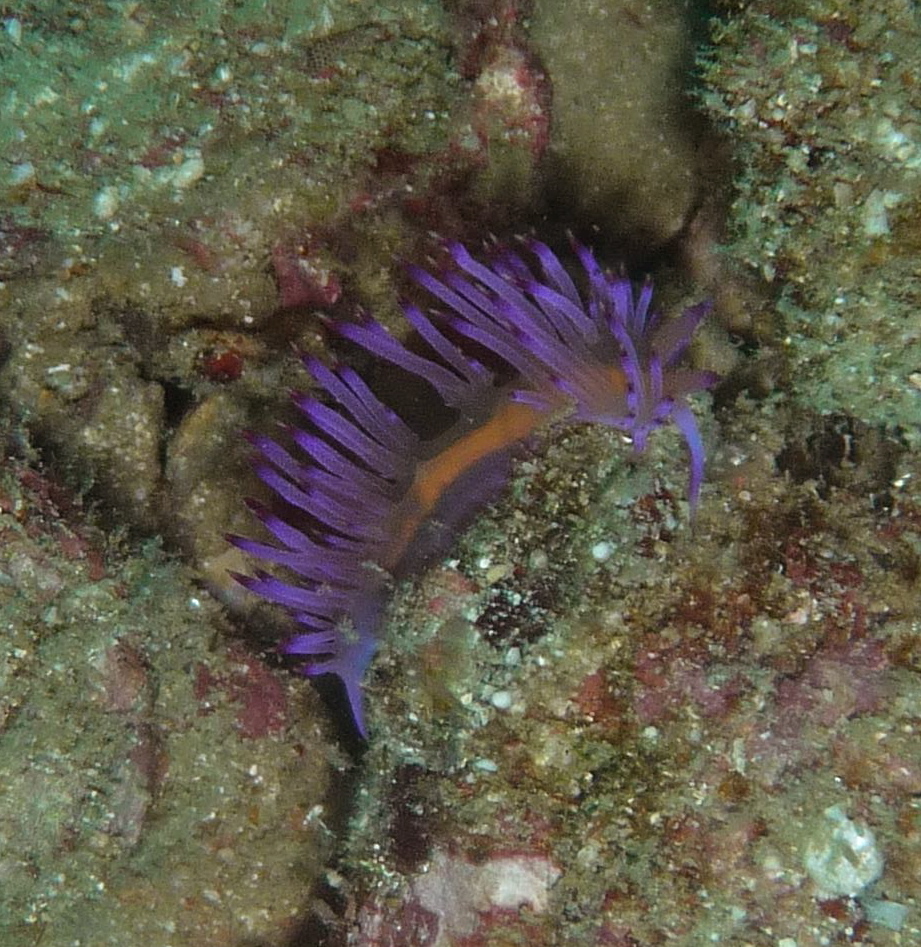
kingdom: Animalia
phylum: Mollusca
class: Gastropoda
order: Nudibranchia
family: Flabellinidae
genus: Coryphellina
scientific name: Coryphellina aurora
